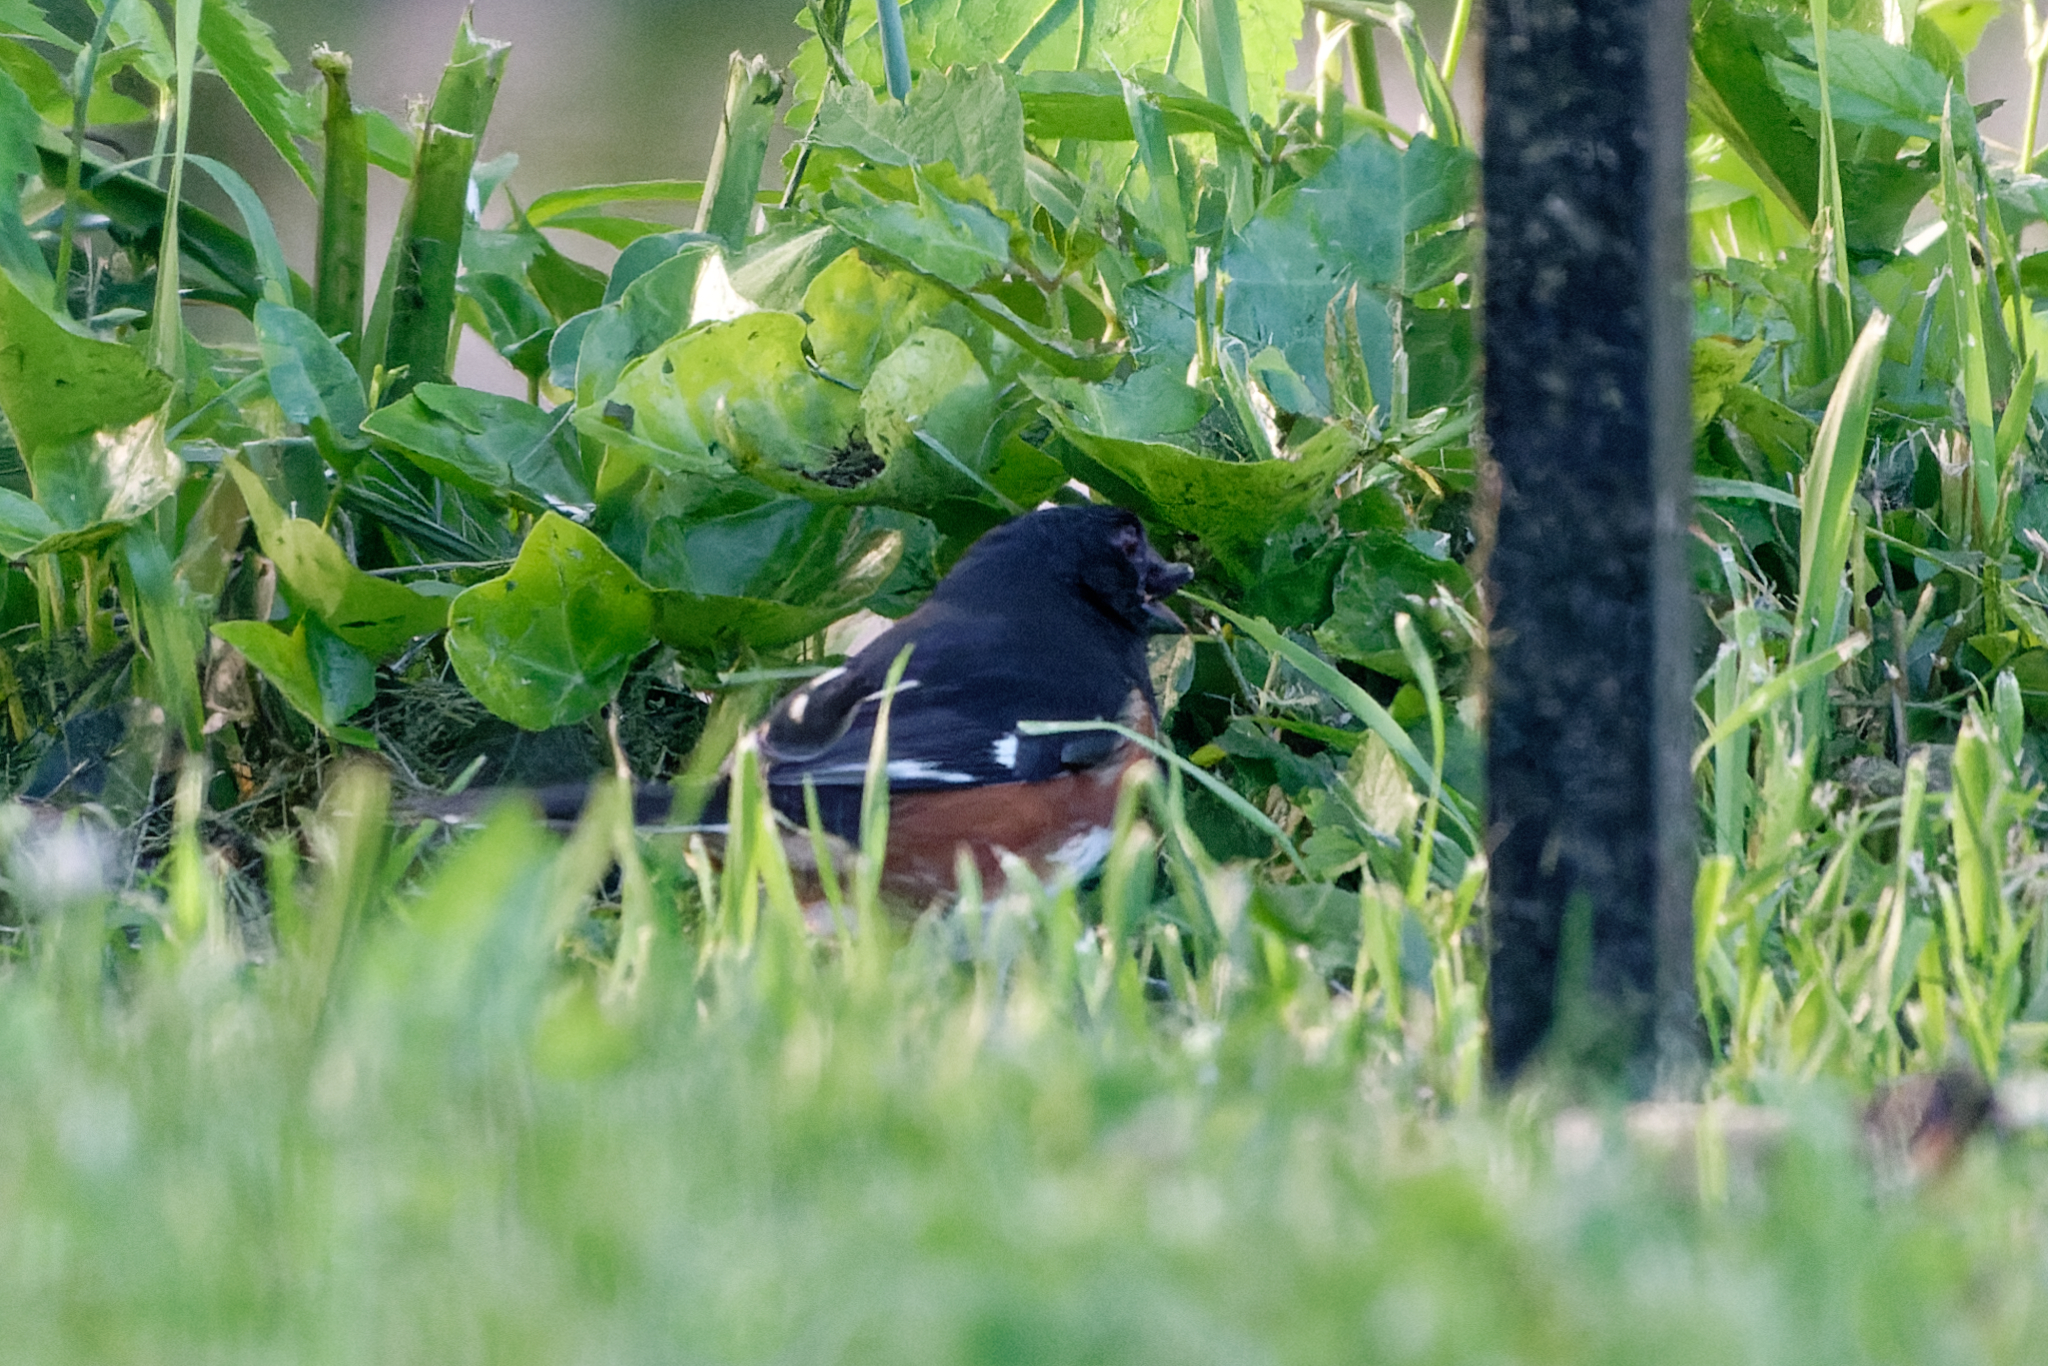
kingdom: Animalia
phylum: Chordata
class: Aves
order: Passeriformes
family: Passerellidae
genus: Pipilo
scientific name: Pipilo erythrophthalmus
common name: Eastern towhee
